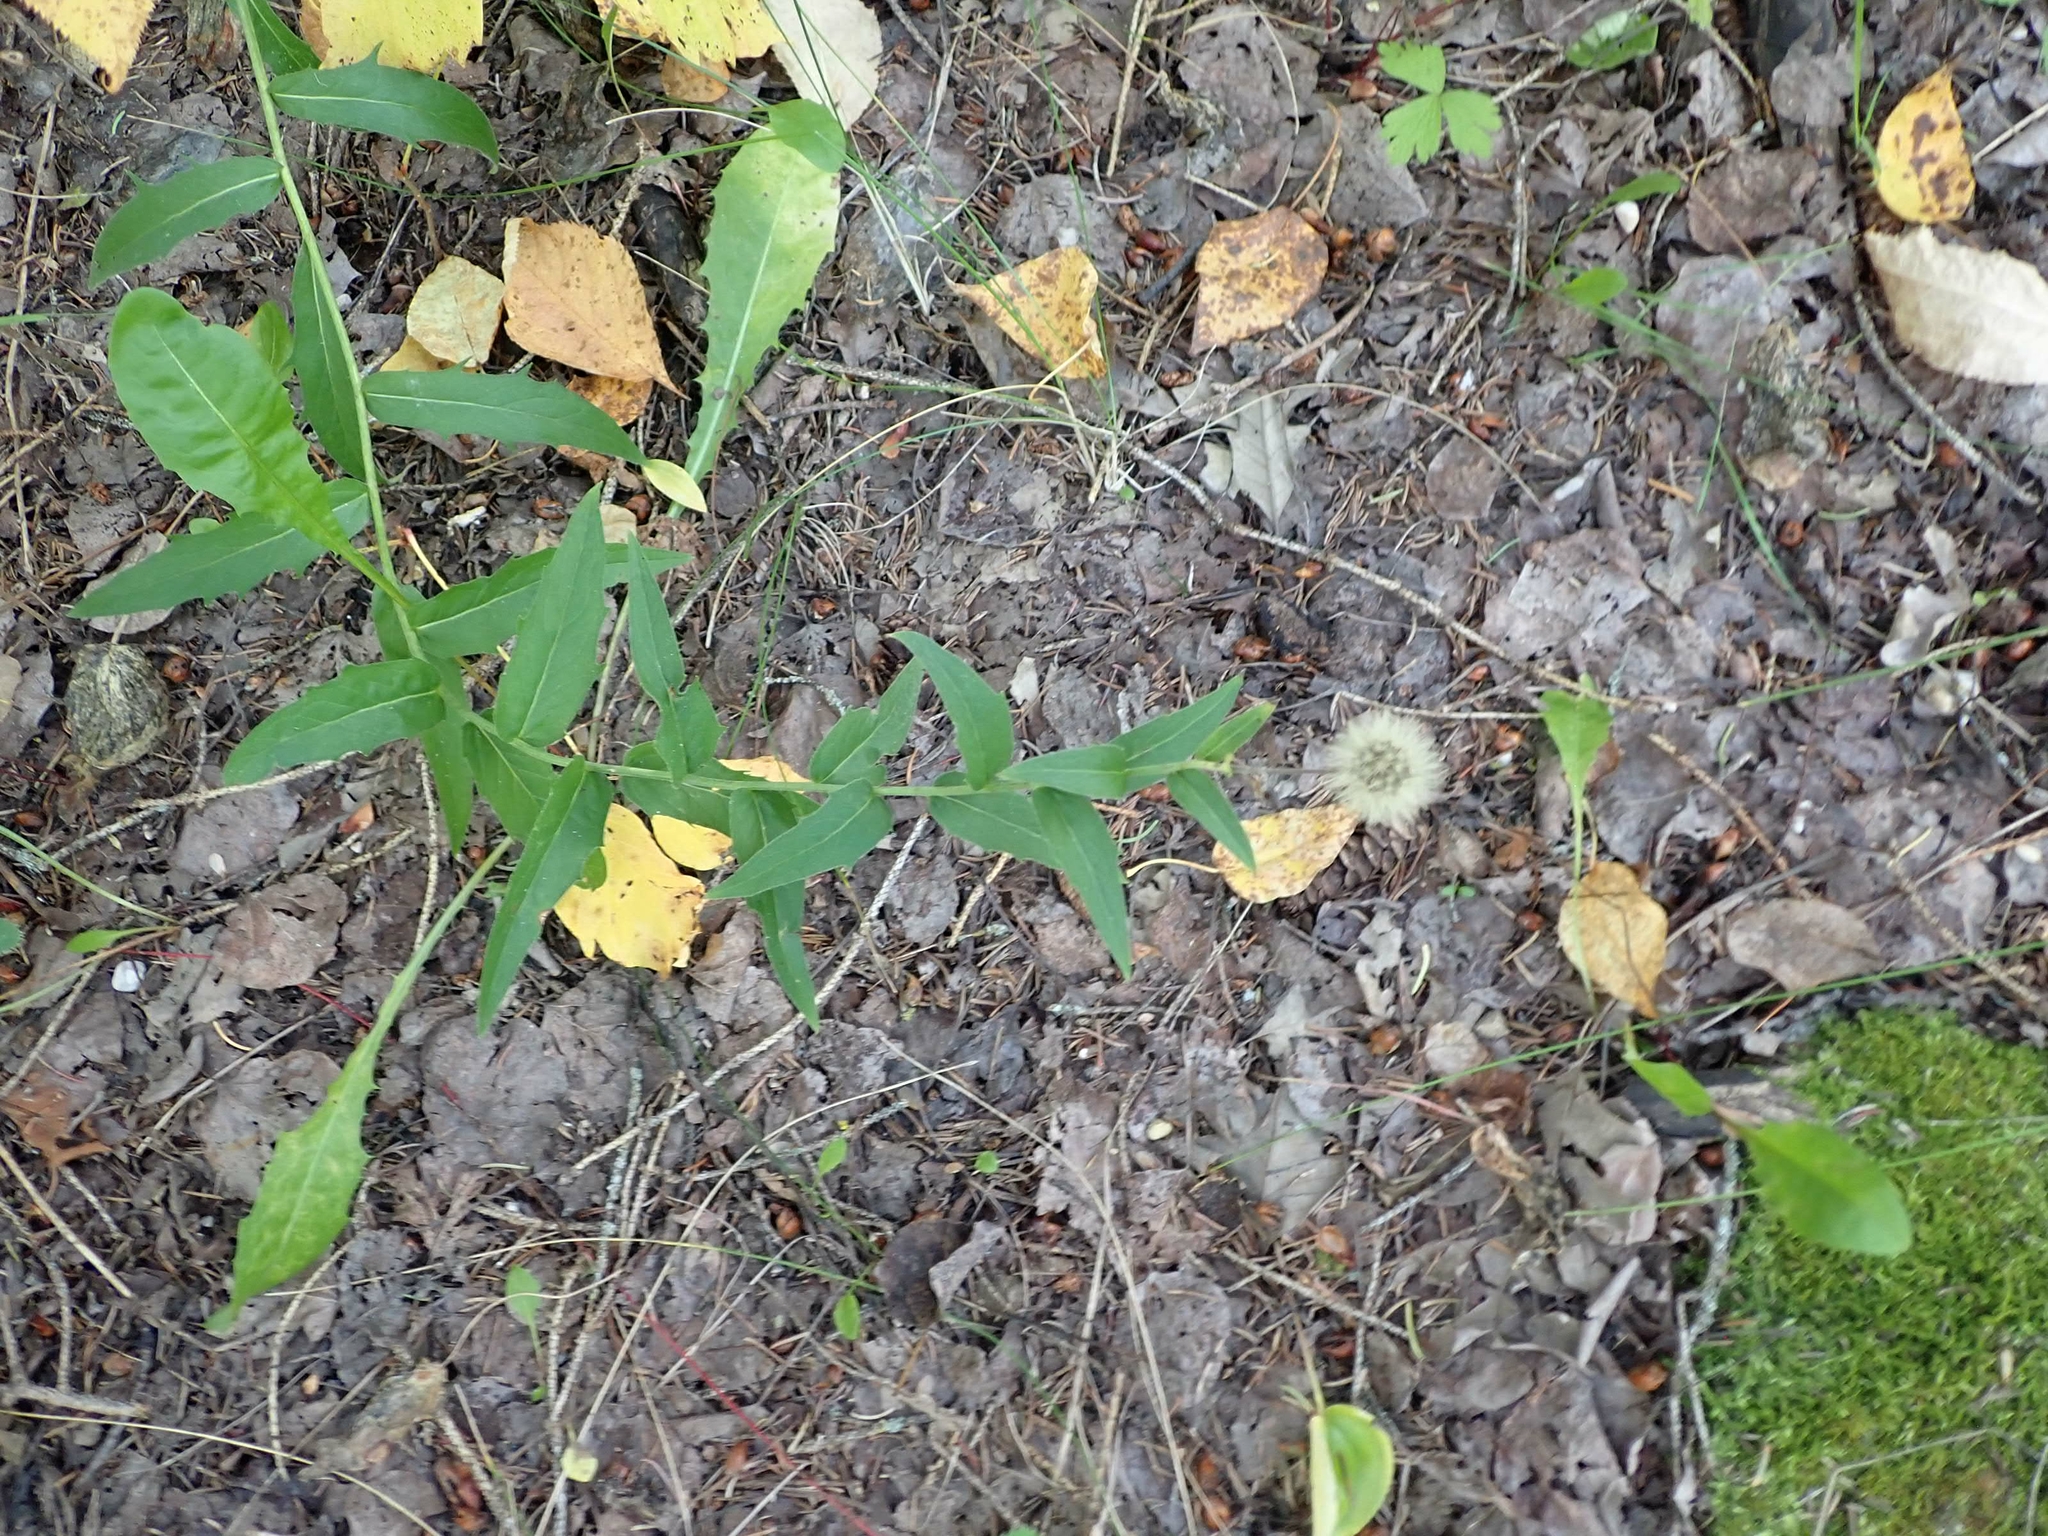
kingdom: Plantae
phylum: Tracheophyta
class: Magnoliopsida
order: Asterales
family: Asteraceae
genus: Hieracium
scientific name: Hieracium umbellatum
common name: Northern hawkweed
